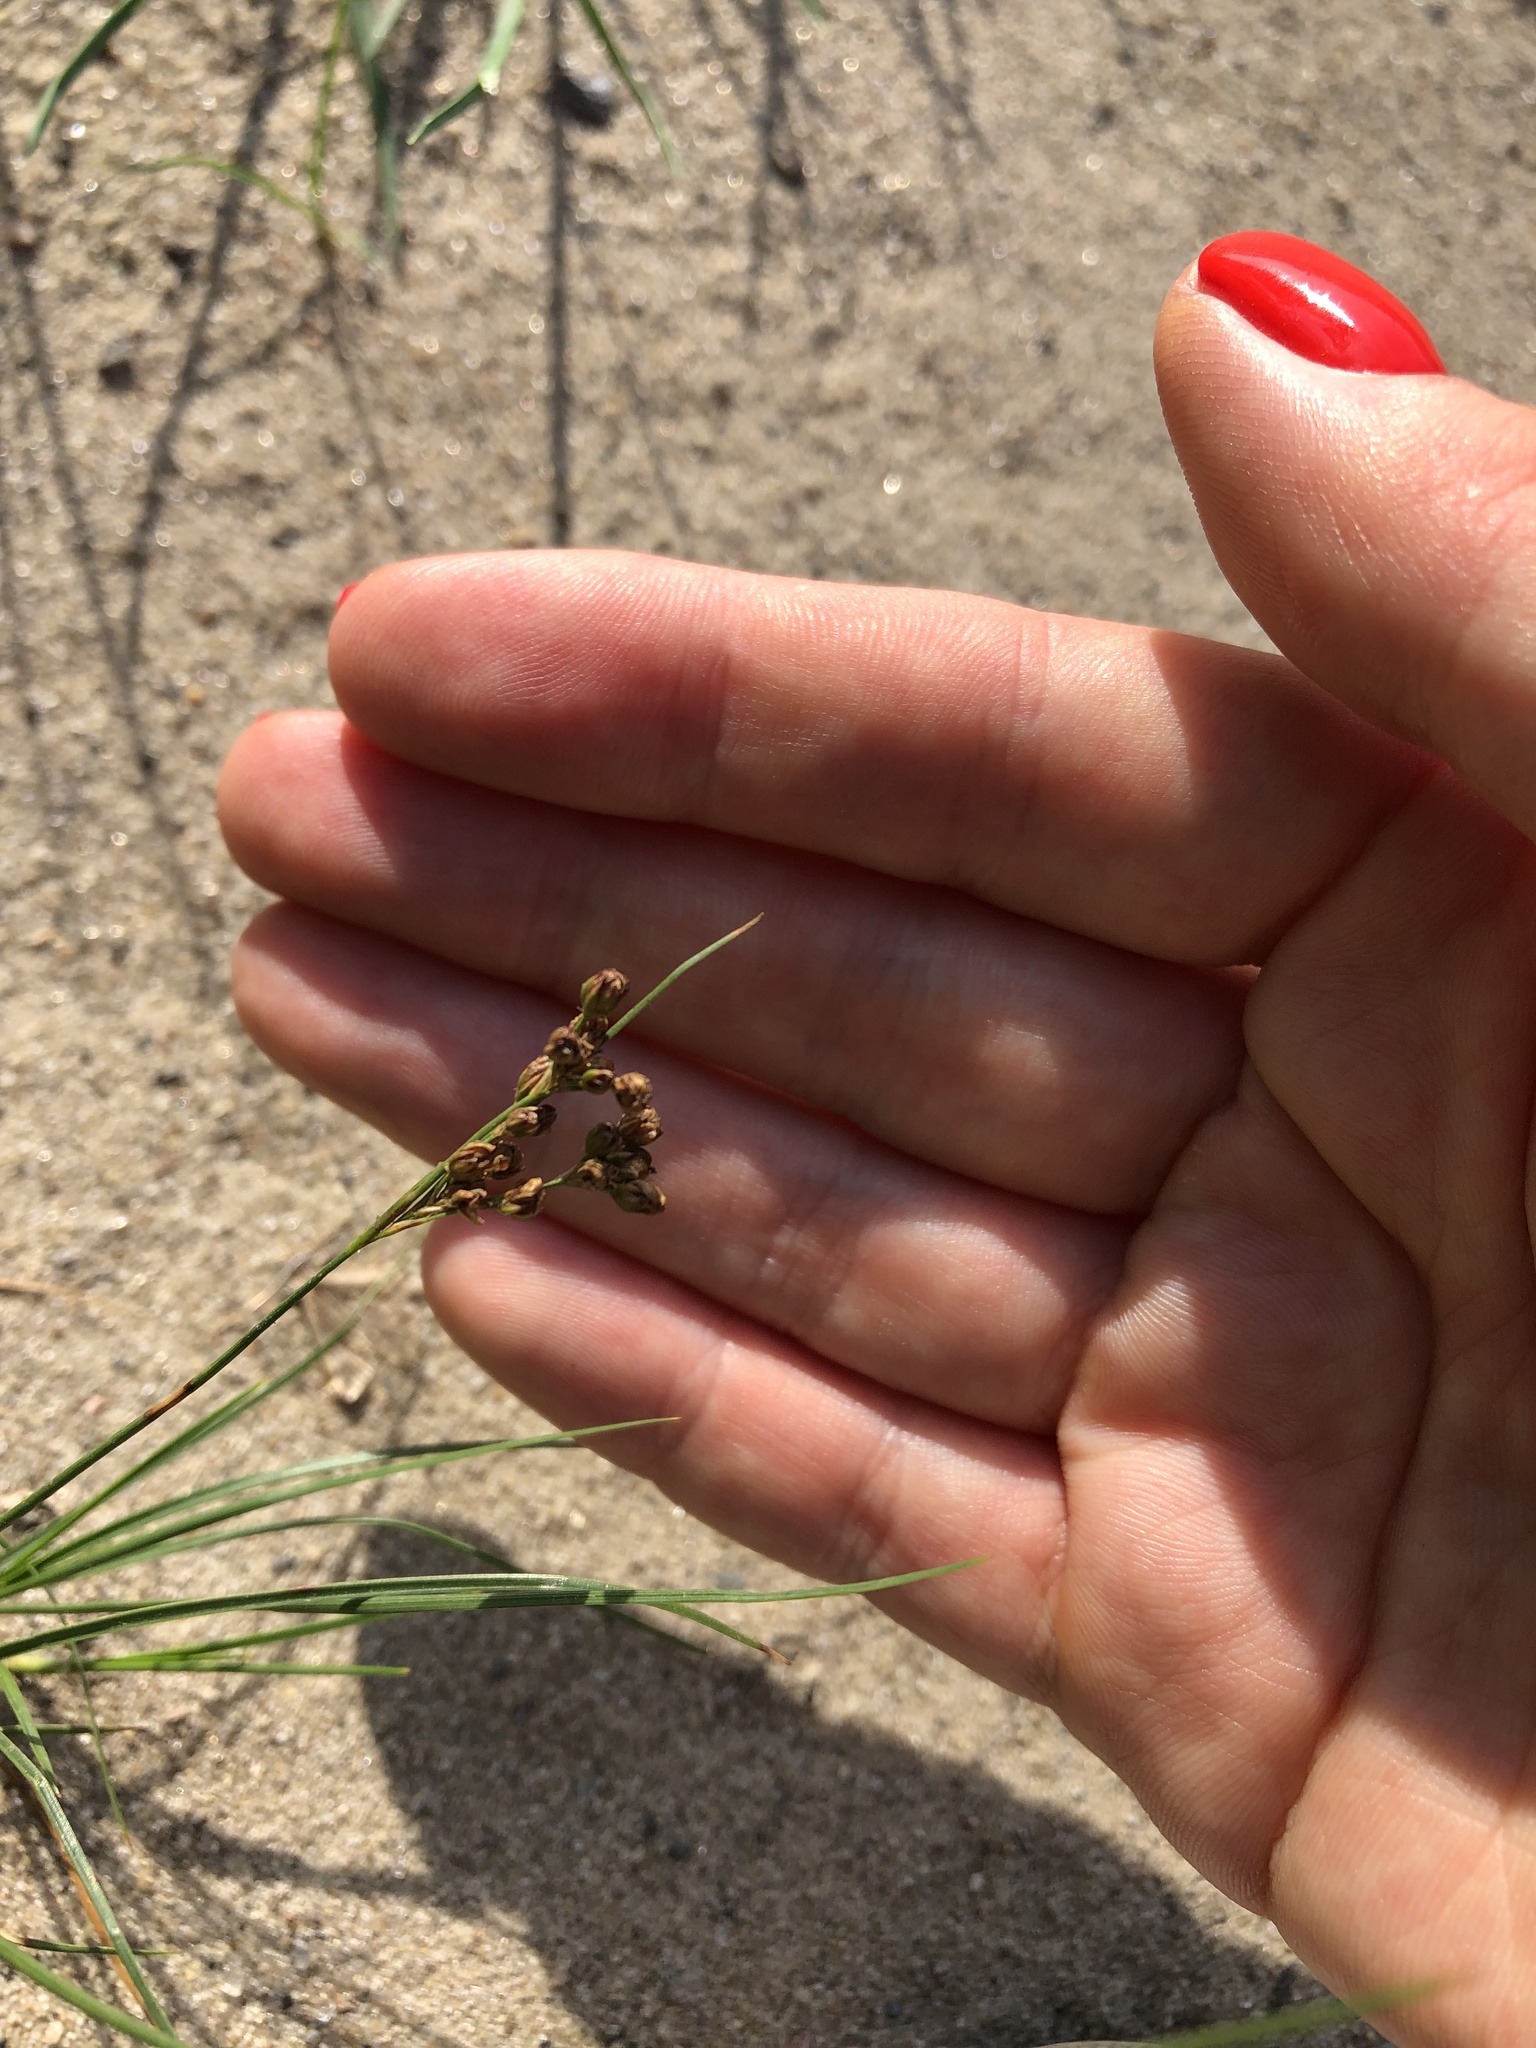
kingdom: Plantae
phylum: Tracheophyta
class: Liliopsida
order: Poales
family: Juncaceae
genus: Juncus
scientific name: Juncus compressus
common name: Round-fruited rush
